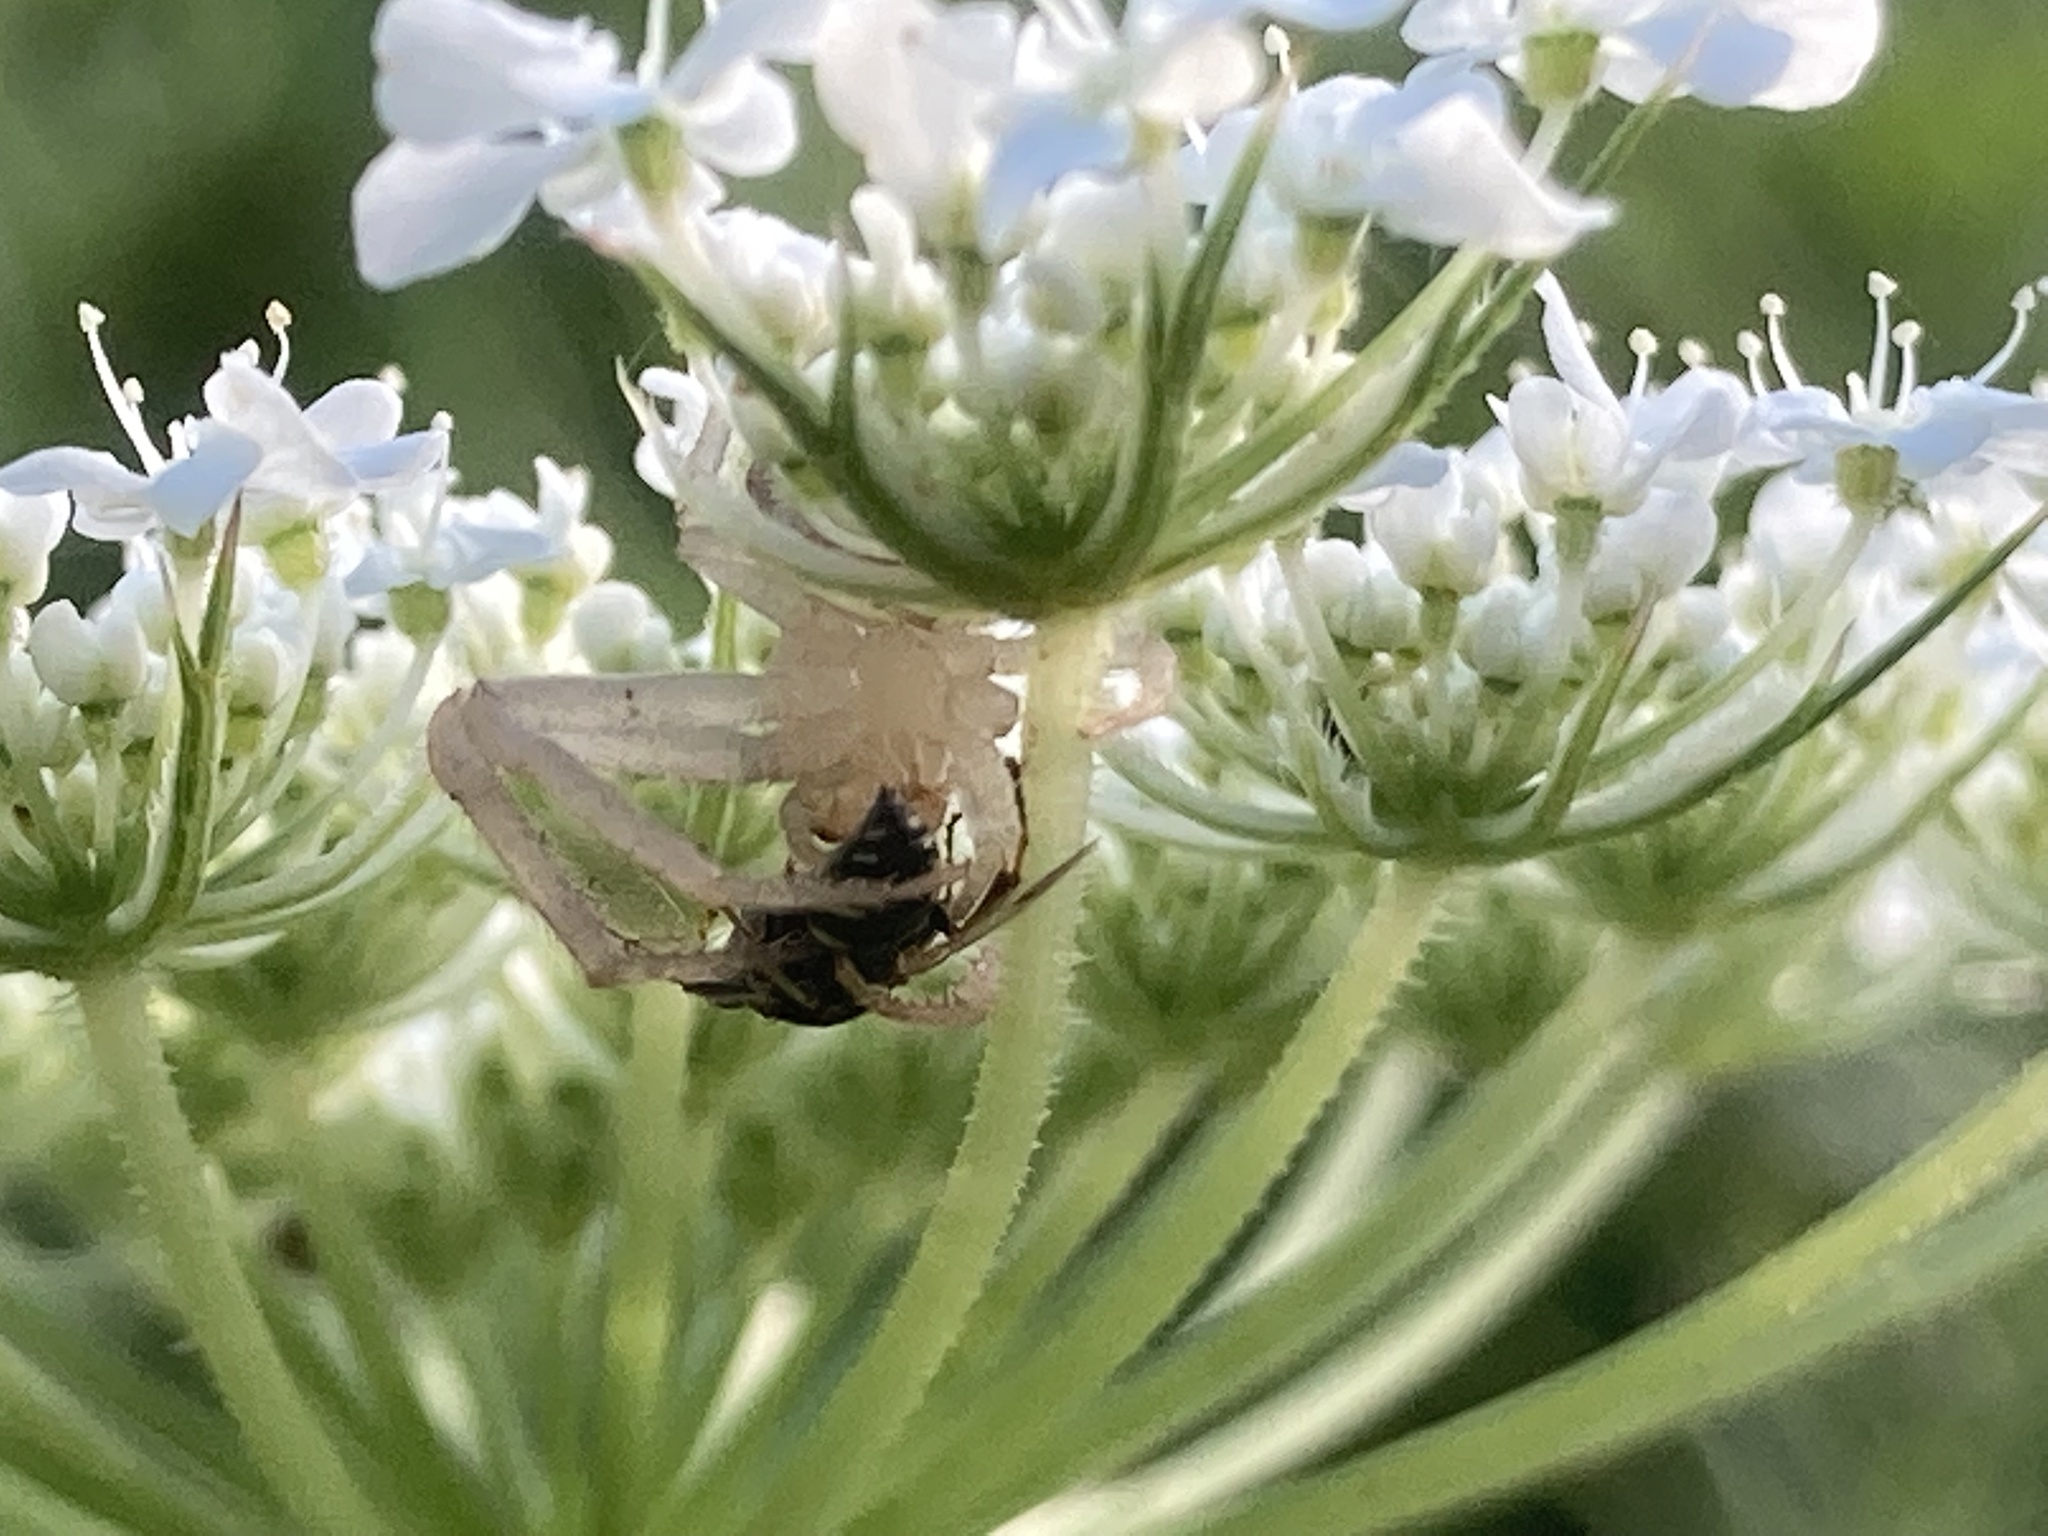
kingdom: Animalia
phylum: Arthropoda
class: Insecta
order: Hymenoptera
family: Crabronidae
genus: Oxybelus
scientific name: Oxybelus
